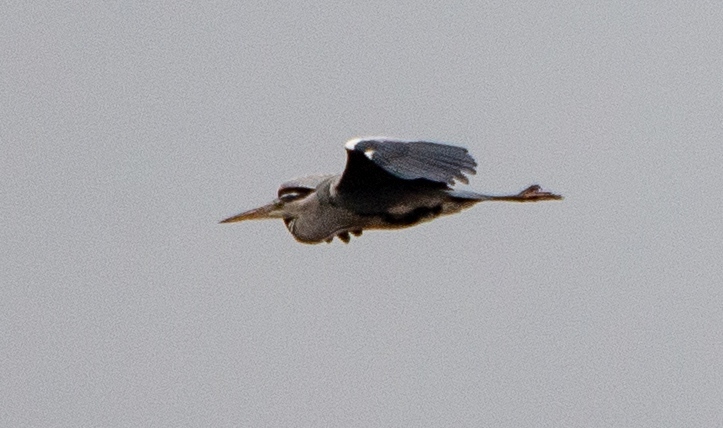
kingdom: Animalia
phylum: Chordata
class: Aves
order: Pelecaniformes
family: Ardeidae
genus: Ardea
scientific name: Ardea cinerea
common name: Grey heron
